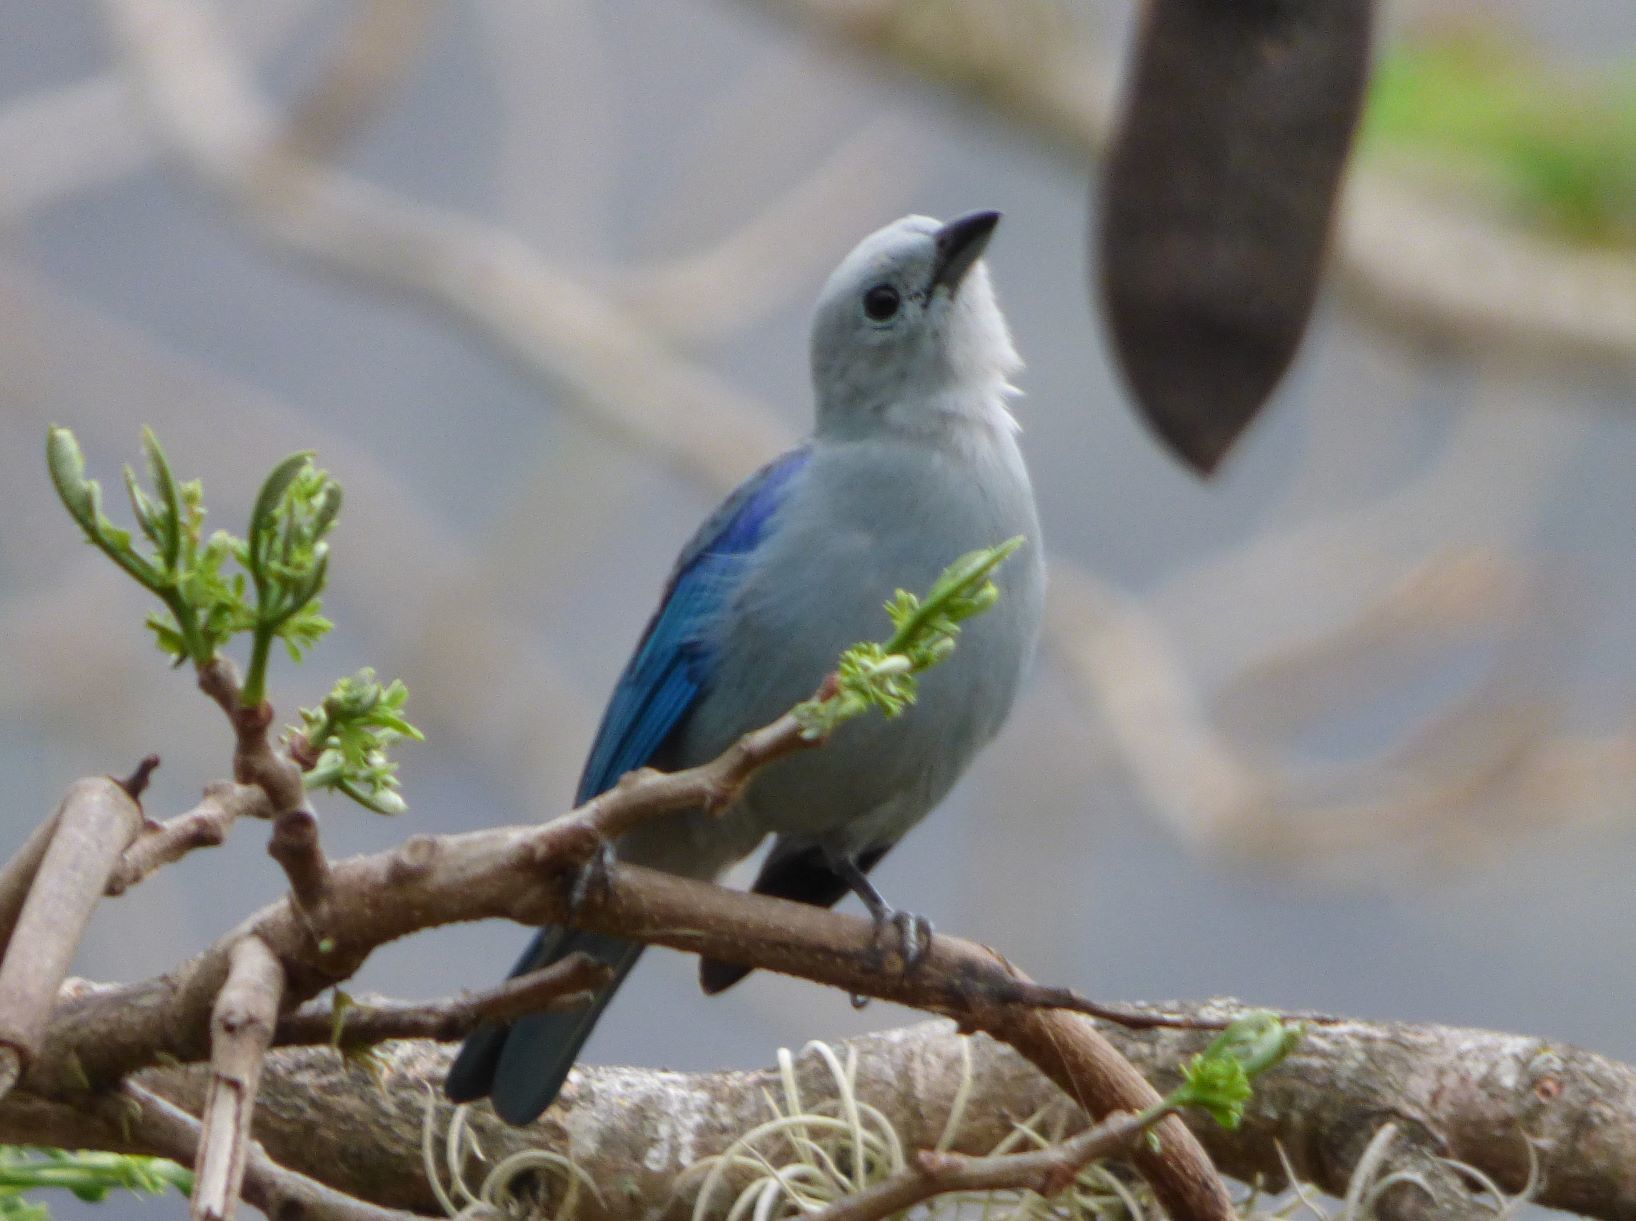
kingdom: Animalia
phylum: Chordata
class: Aves
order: Passeriformes
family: Thraupidae
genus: Thraupis
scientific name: Thraupis episcopus
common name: Blue-grey tanager
